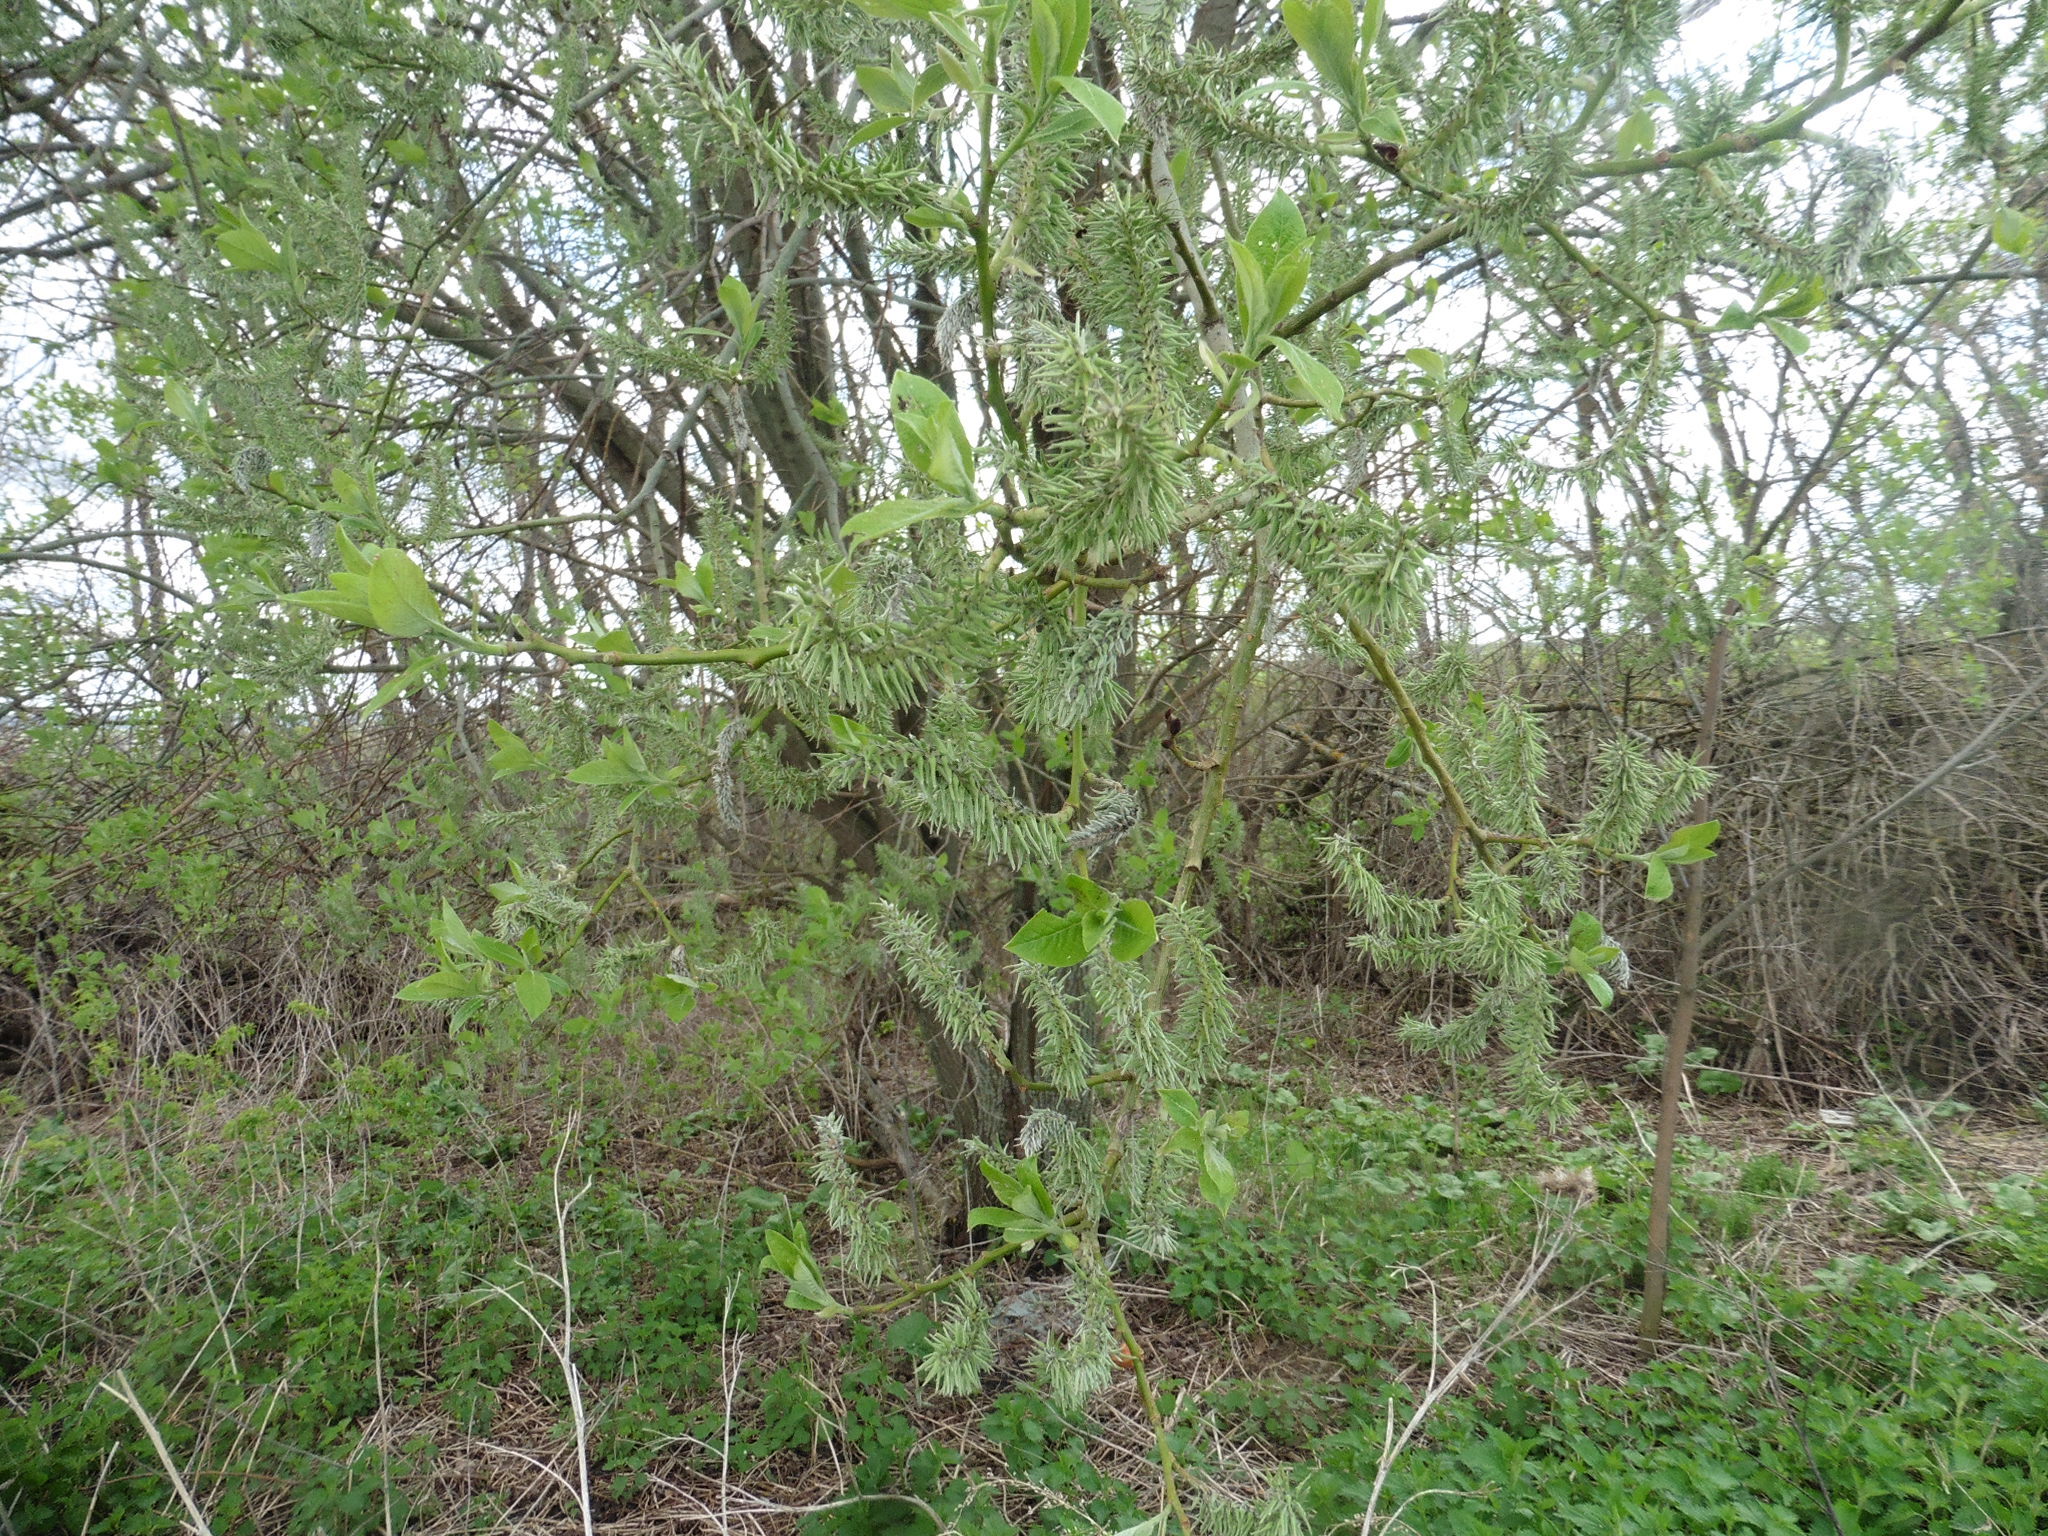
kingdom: Plantae
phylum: Tracheophyta
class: Magnoliopsida
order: Malpighiales
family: Salicaceae
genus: Salix
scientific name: Salix caprea
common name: Goat willow
